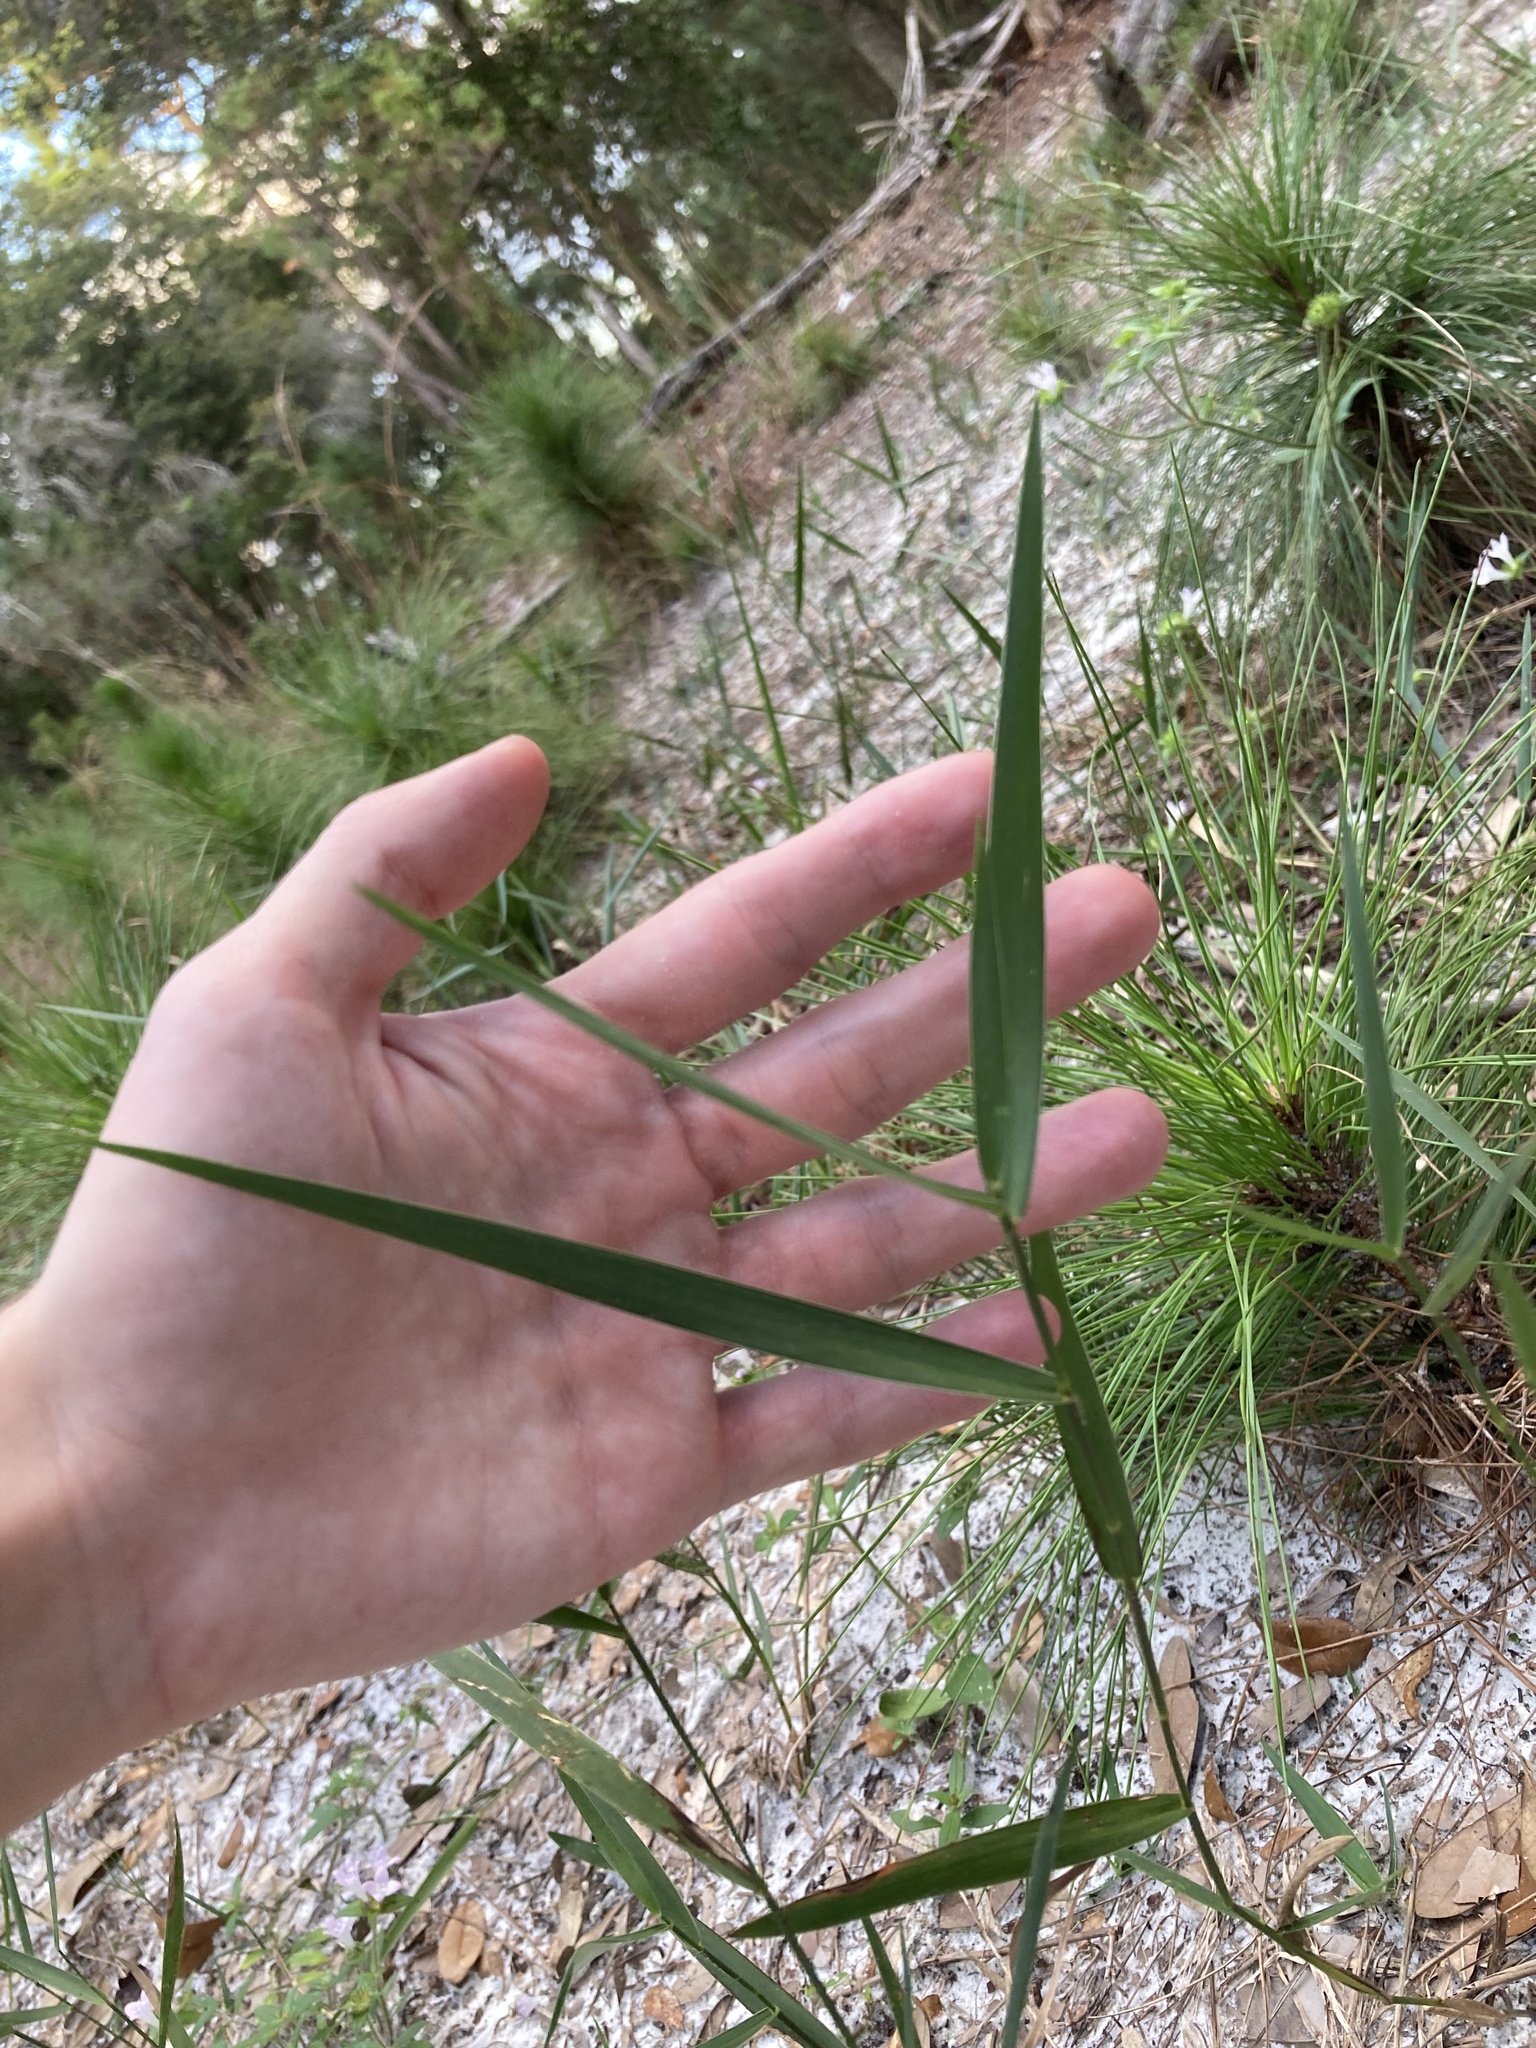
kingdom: Plantae
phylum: Tracheophyta
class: Liliopsida
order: Poales
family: Poaceae
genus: Amphicarpum
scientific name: Amphicarpum muehlenbergianum
